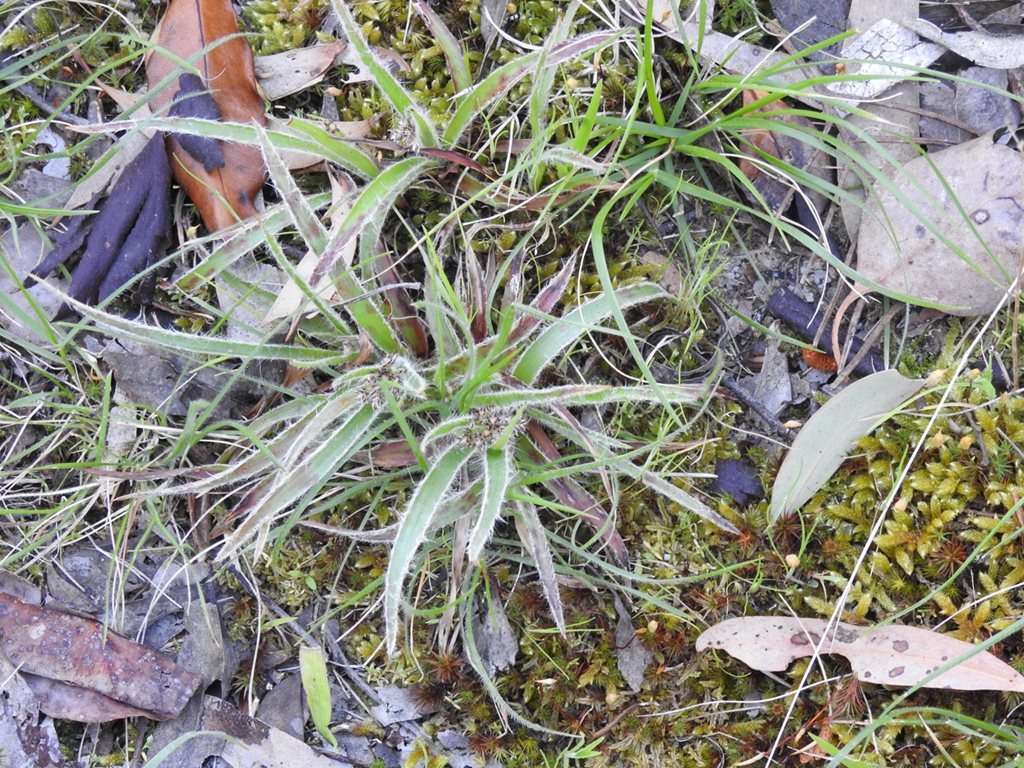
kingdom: Plantae
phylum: Tracheophyta
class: Liliopsida
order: Poales
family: Juncaceae
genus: Luzula
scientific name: Luzula meridionalis
